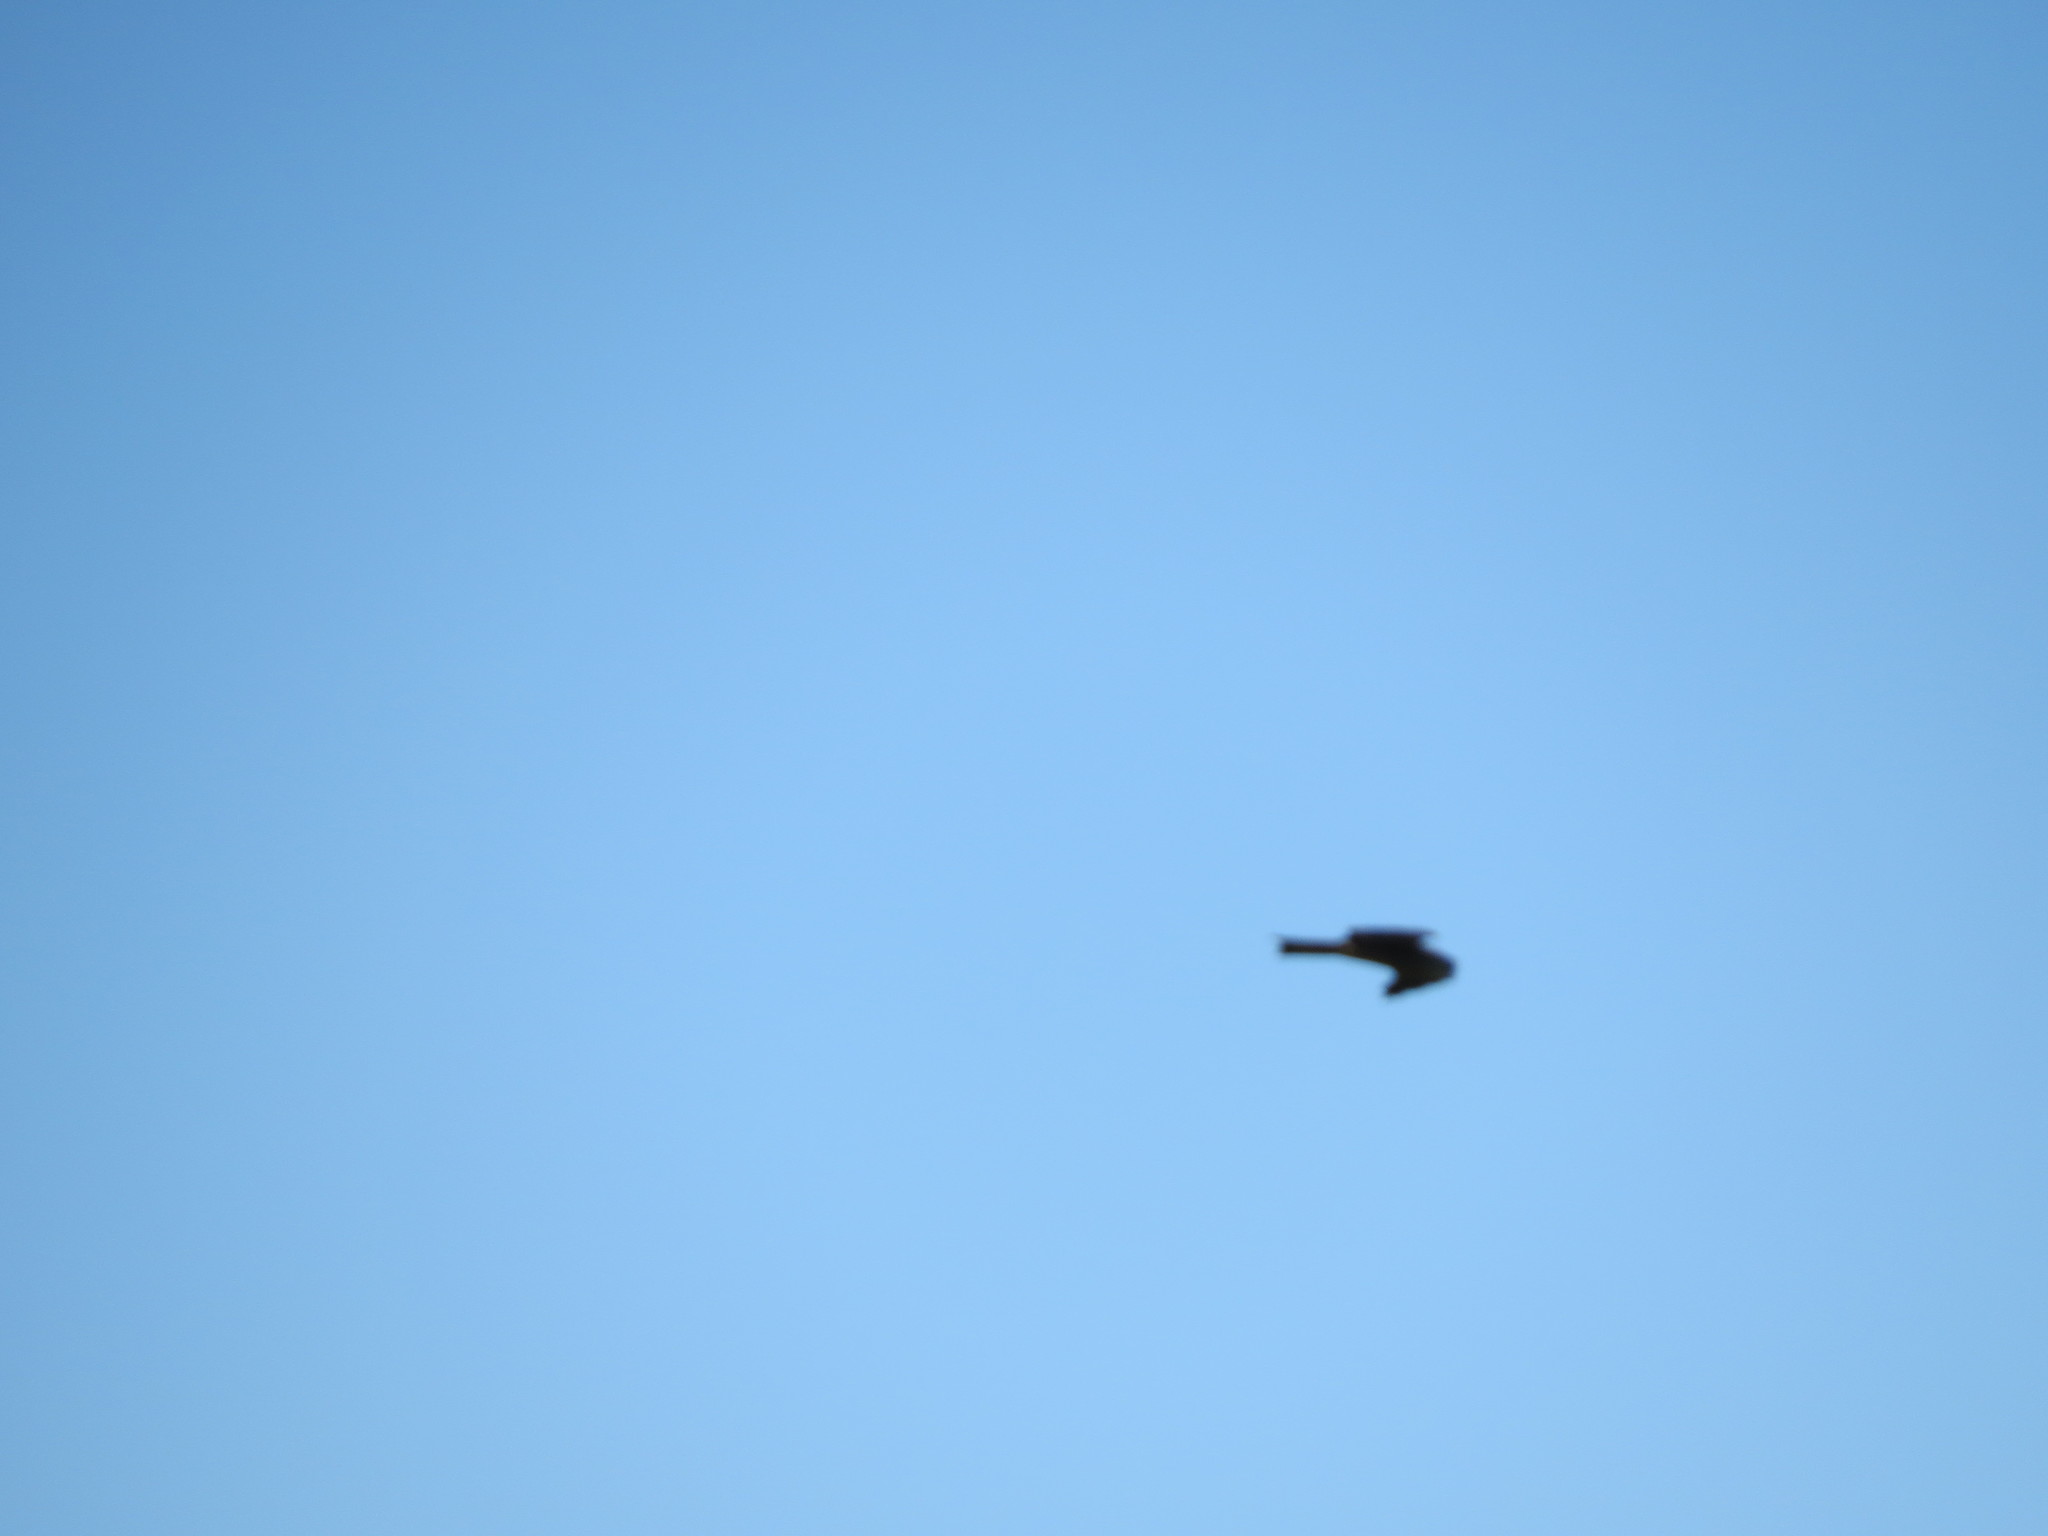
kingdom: Animalia
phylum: Chordata
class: Aves
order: Accipitriformes
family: Accipitridae
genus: Milvus
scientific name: Milvus migrans
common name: Black kite
